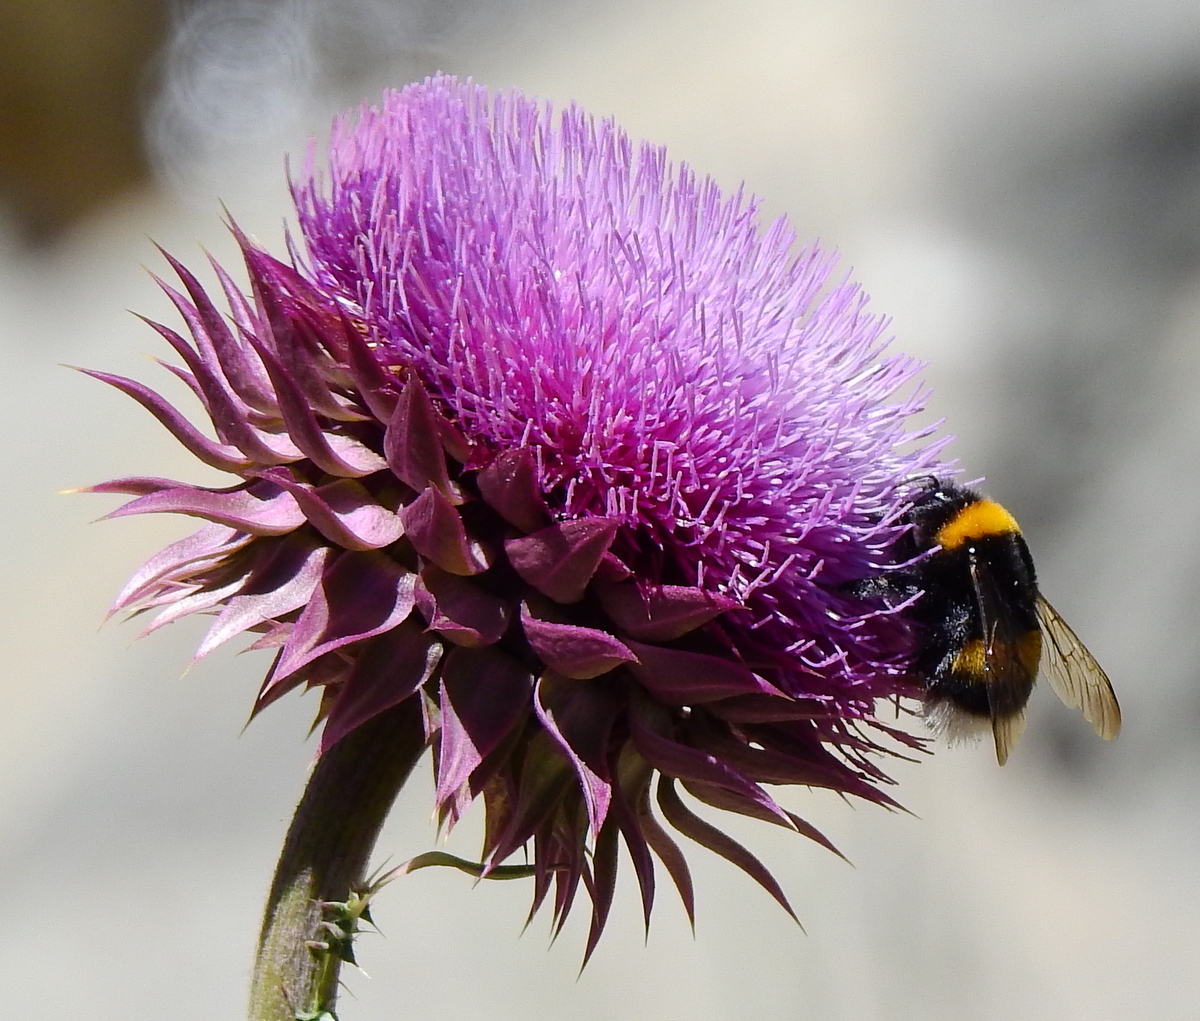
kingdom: Plantae
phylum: Tracheophyta
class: Magnoliopsida
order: Asterales
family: Asteraceae
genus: Carduus
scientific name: Carduus nutans
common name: Musk thistle
